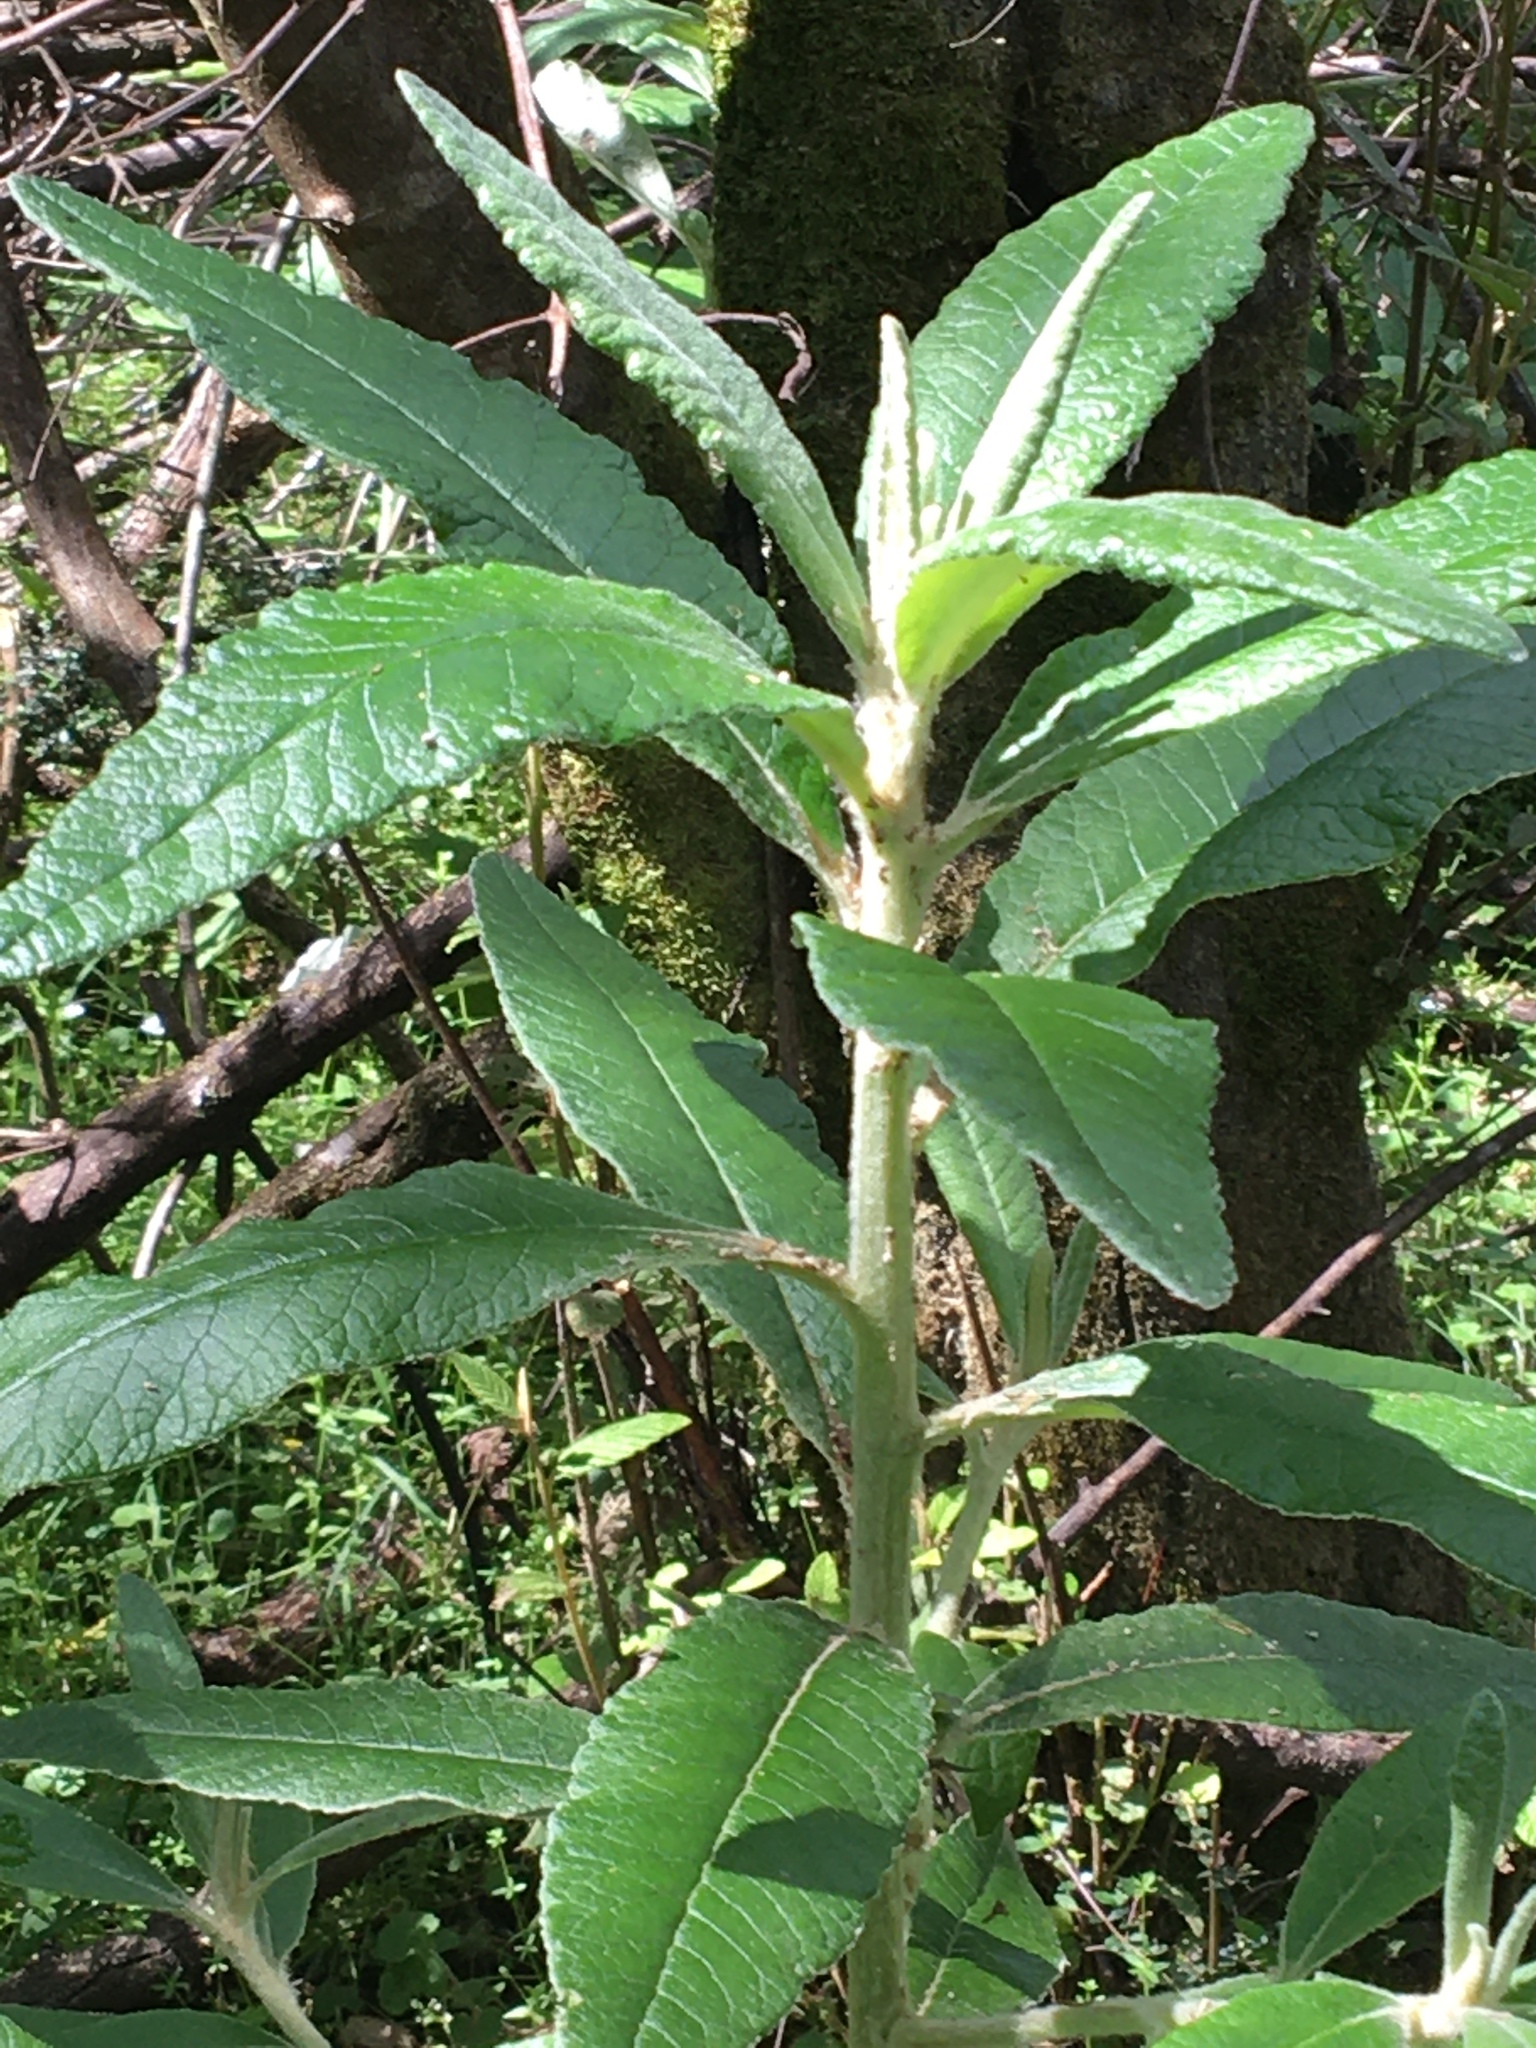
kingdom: Plantae
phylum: Tracheophyta
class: Magnoliopsida
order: Asterales
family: Asteraceae
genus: Bedfordia
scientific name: Bedfordia arborescens
